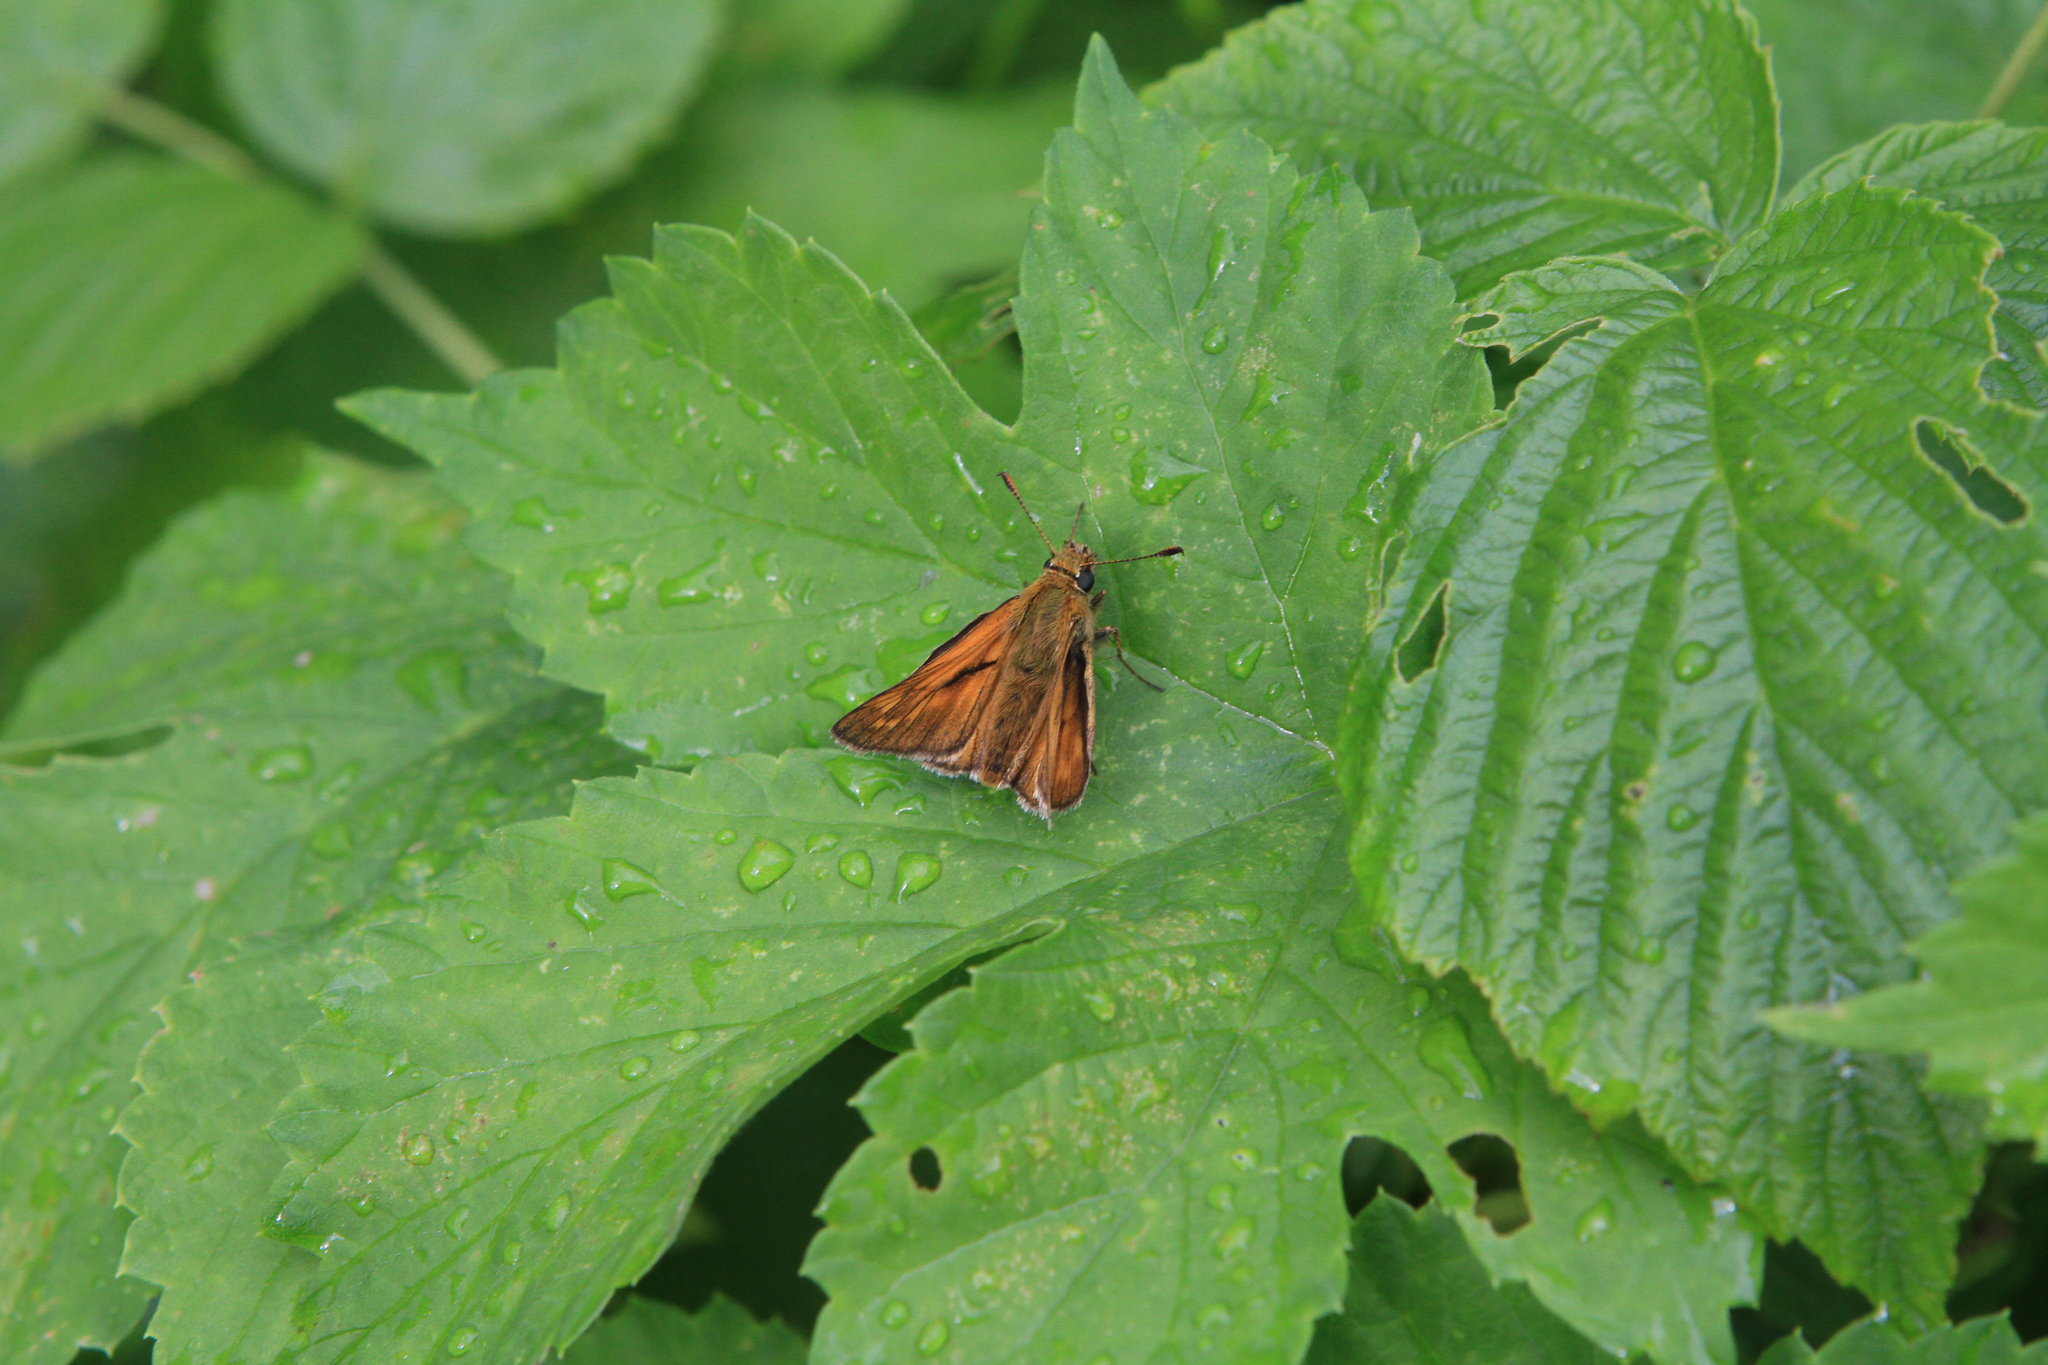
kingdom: Plantae
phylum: Tracheophyta
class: Magnoliopsida
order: Rosales
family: Cannabaceae
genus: Humulus
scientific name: Humulus lupulus
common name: Hop
